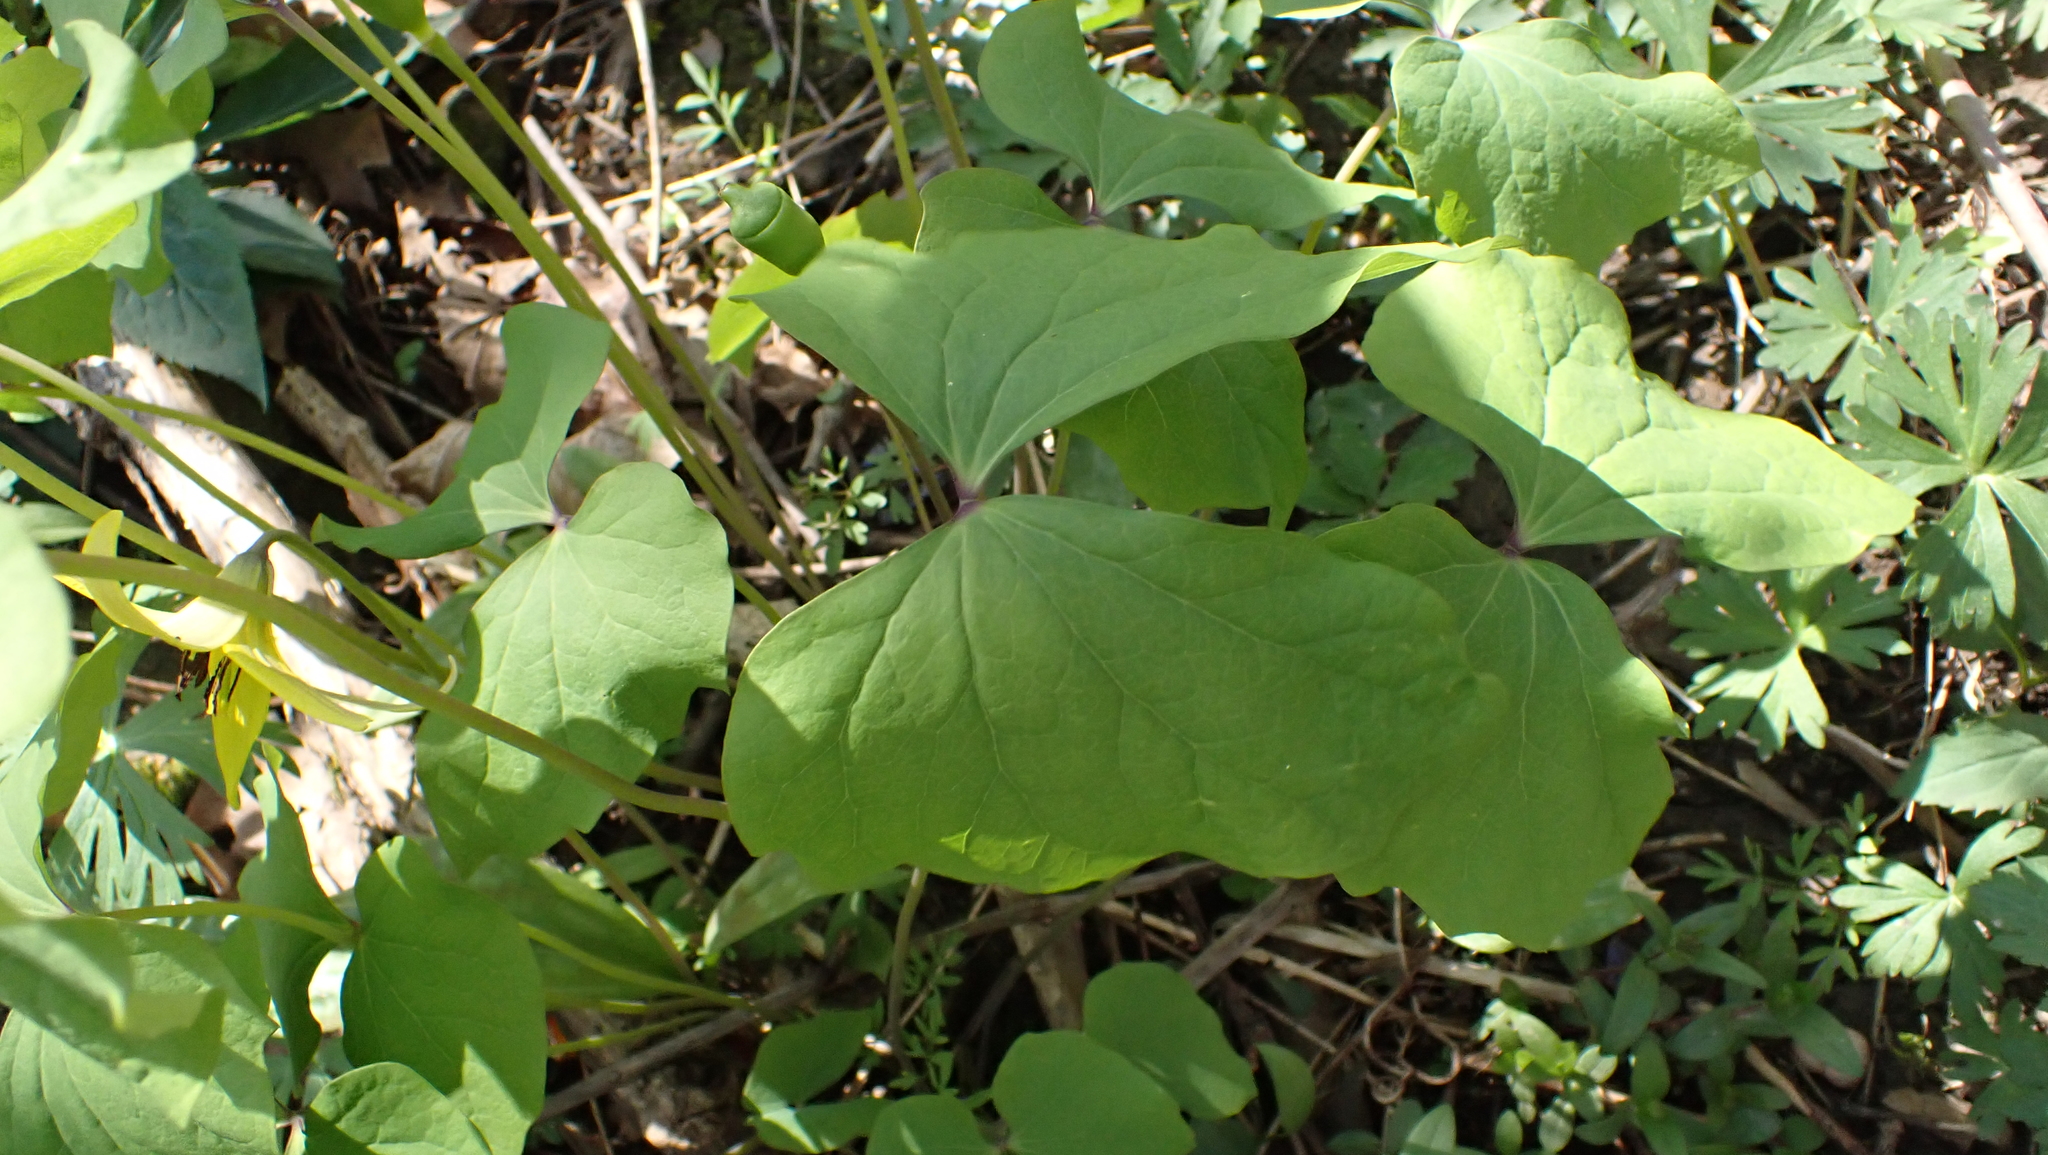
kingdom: Plantae
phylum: Tracheophyta
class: Magnoliopsida
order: Ranunculales
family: Berberidaceae
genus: Jeffersonia
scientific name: Jeffersonia diphylla
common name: Rheumatism-root
